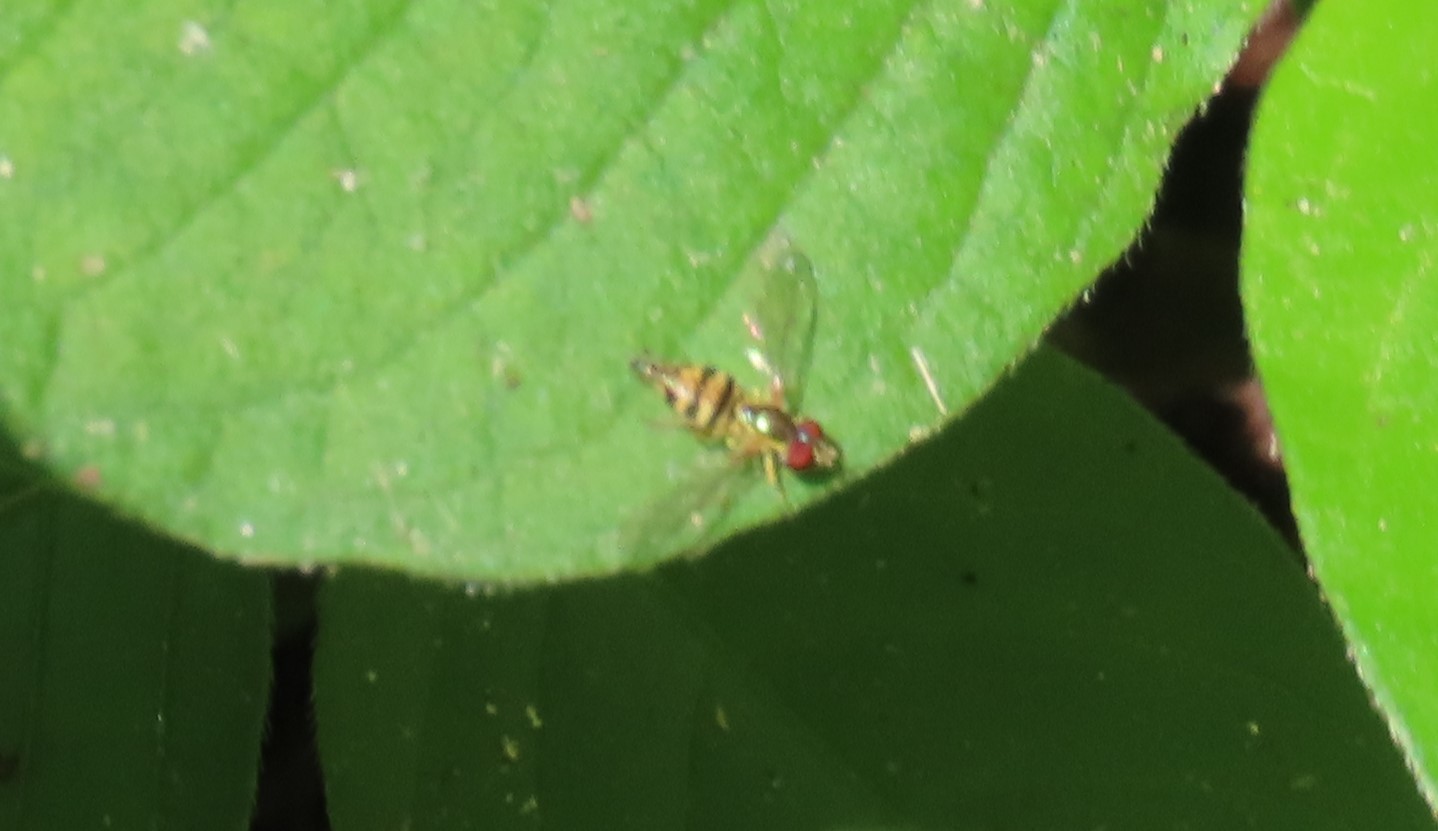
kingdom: Animalia
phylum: Arthropoda
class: Insecta
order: Diptera
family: Syrphidae
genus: Toxomerus
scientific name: Toxomerus geminatus
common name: Eastern calligrapher
